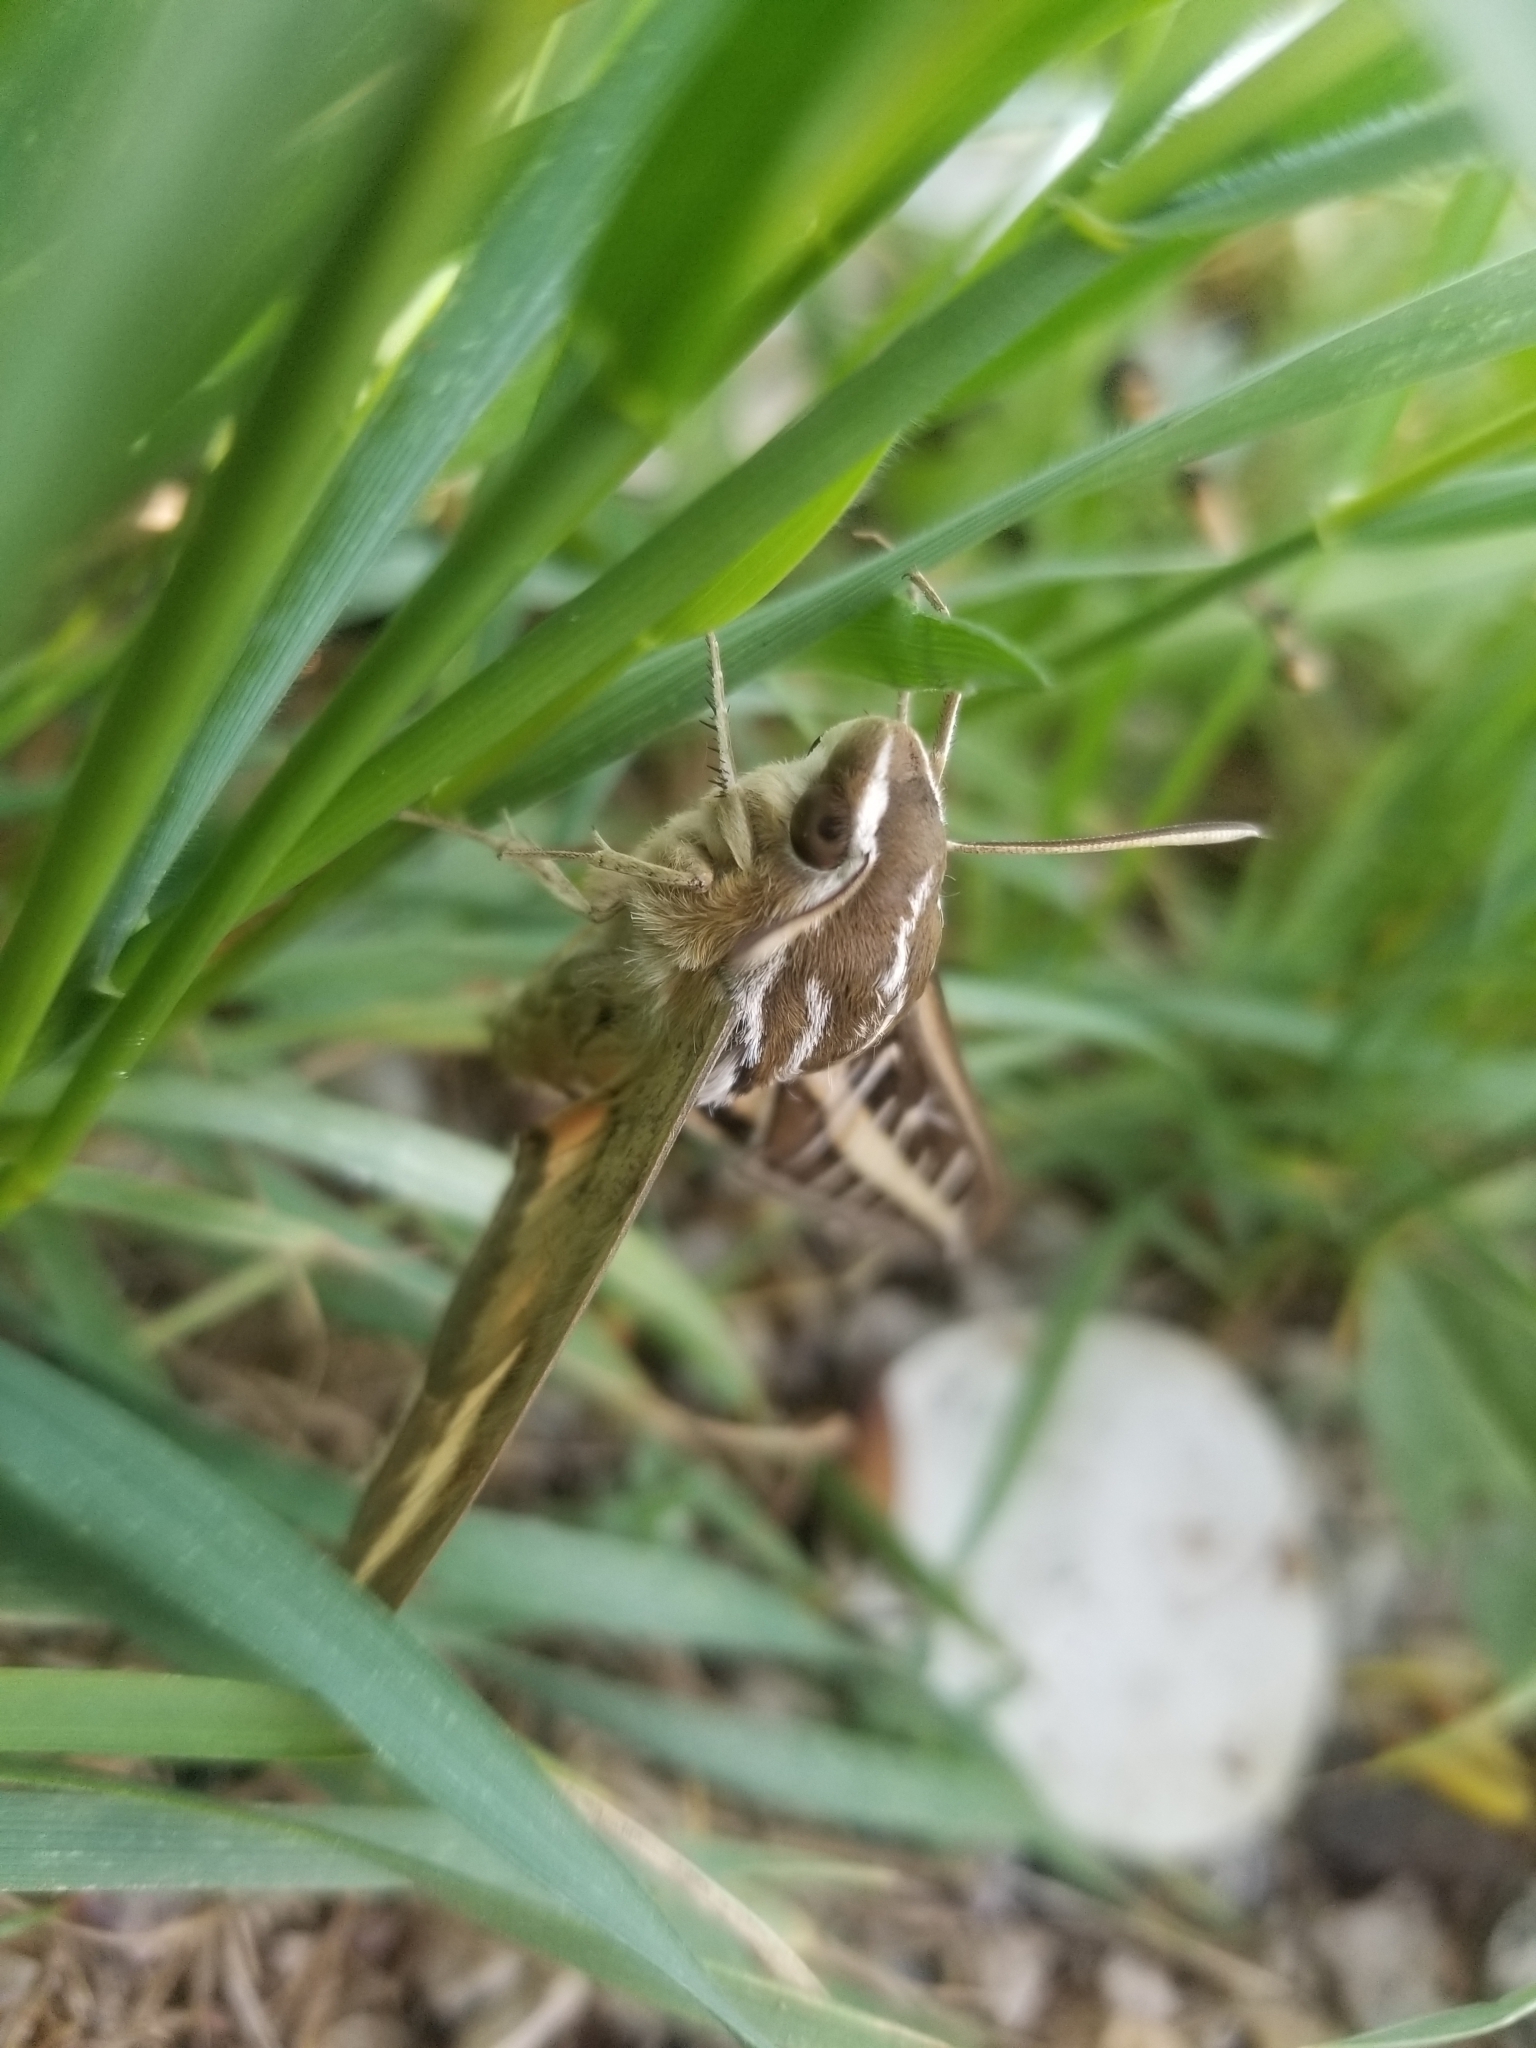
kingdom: Animalia
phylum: Arthropoda
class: Insecta
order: Lepidoptera
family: Sphingidae
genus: Hyles
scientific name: Hyles lineata
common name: White-lined sphinx
